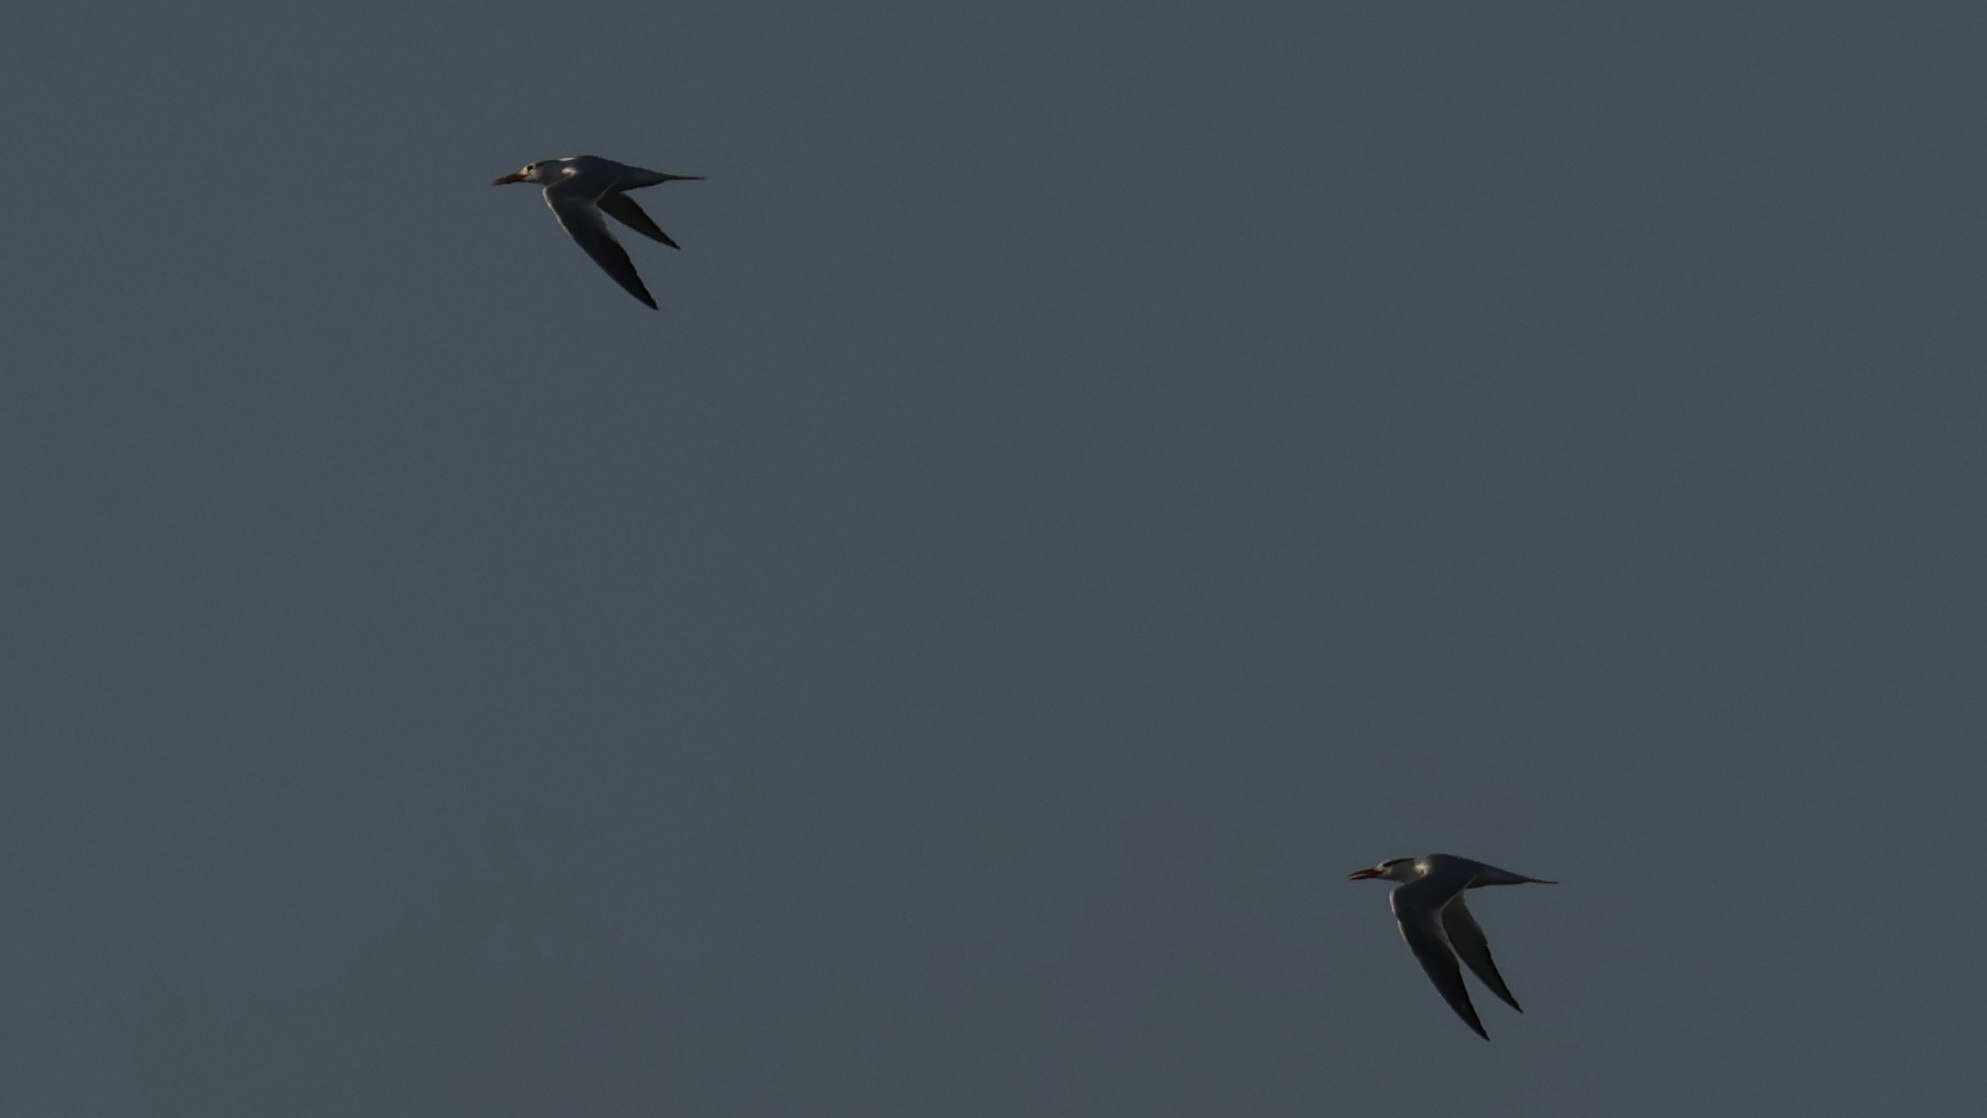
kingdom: Animalia
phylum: Chordata
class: Aves
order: Charadriiformes
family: Laridae
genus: Thalasseus
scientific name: Thalasseus maximus
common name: Royal tern
